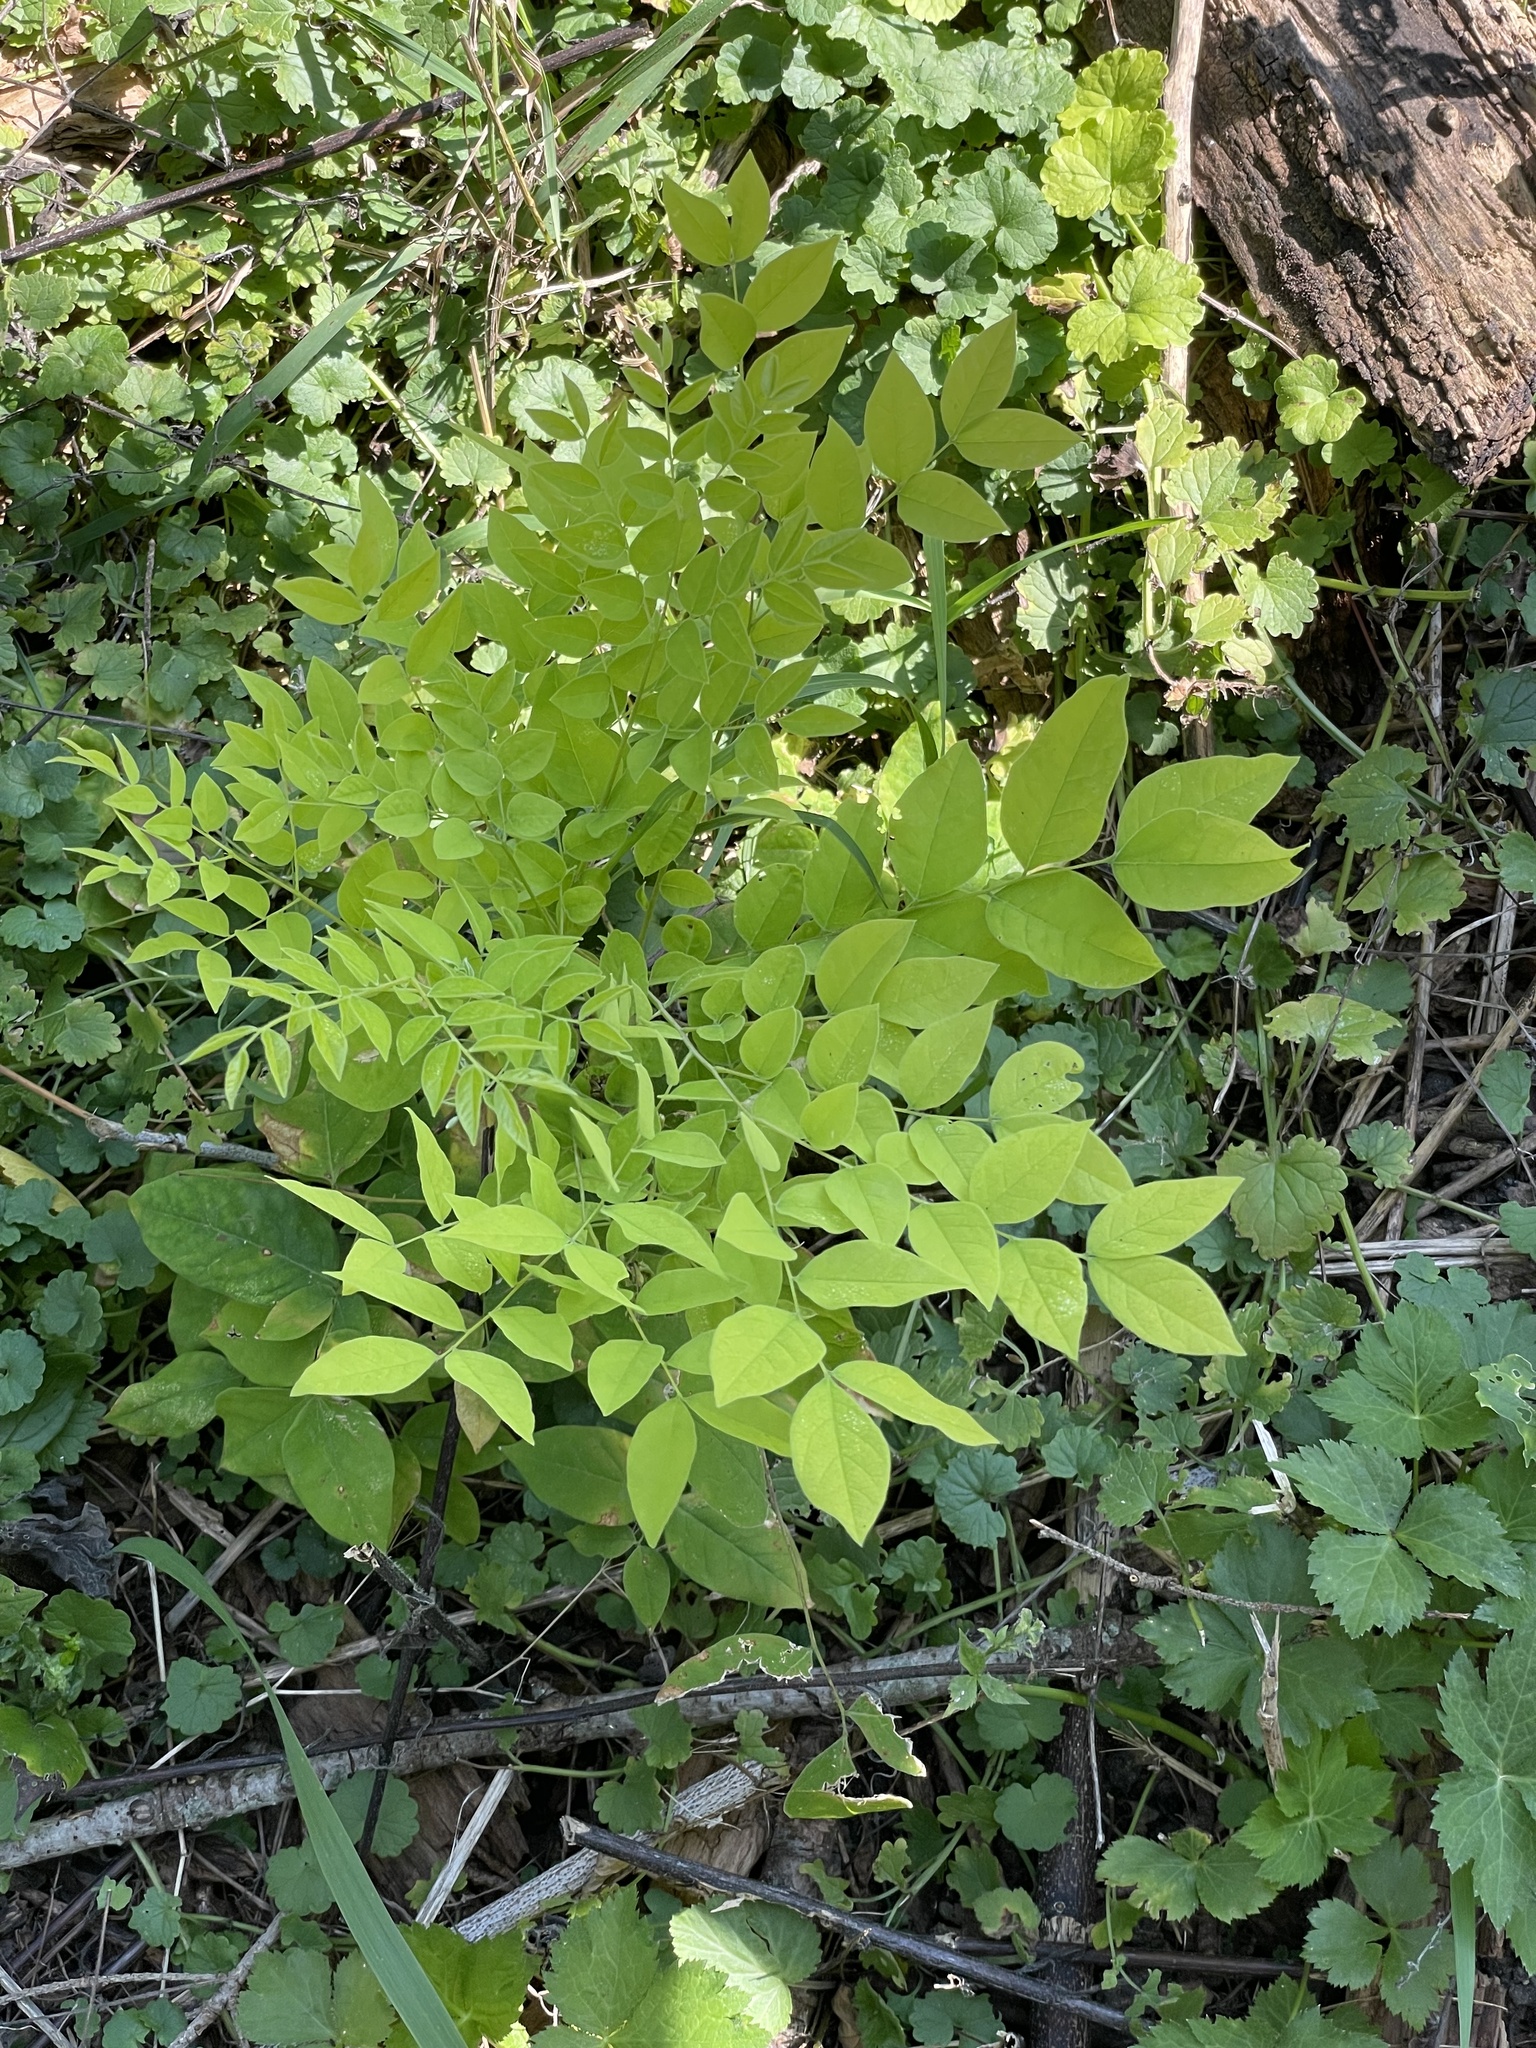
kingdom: Plantae
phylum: Tracheophyta
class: Magnoliopsida
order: Fabales
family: Fabaceae
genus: Gymnocladus
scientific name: Gymnocladus dioicus
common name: Kentucky coffee-tree
